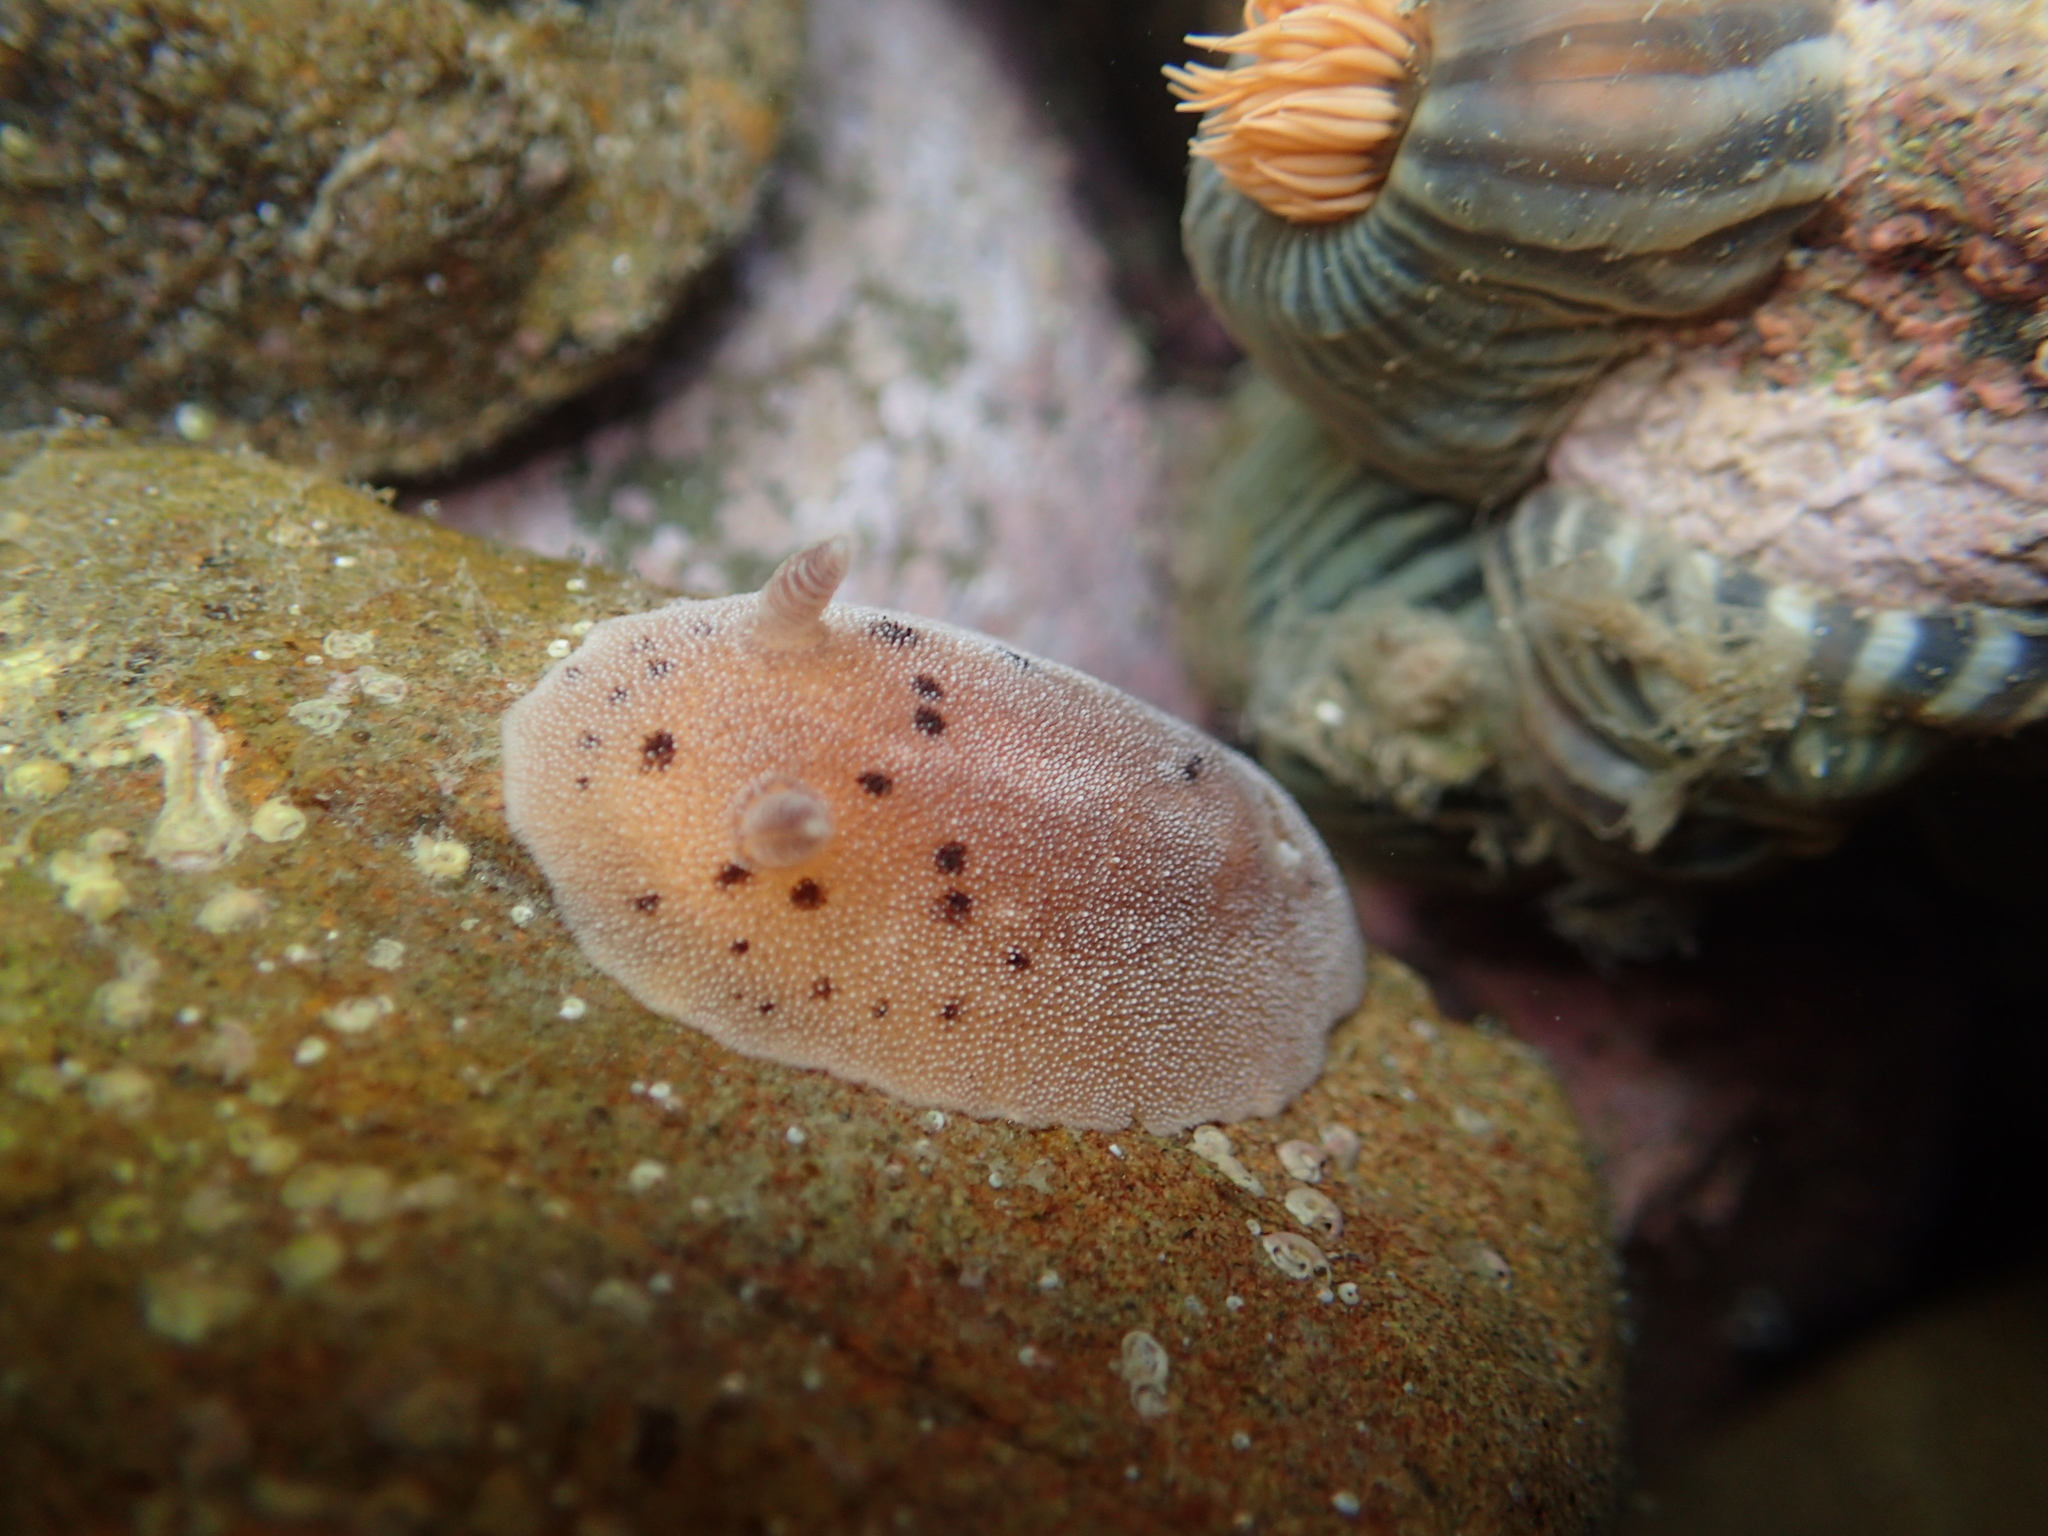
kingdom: Animalia
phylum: Mollusca
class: Gastropoda
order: Nudibranchia
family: Discodorididae
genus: Alloiodoris
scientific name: Alloiodoris lanuginata
